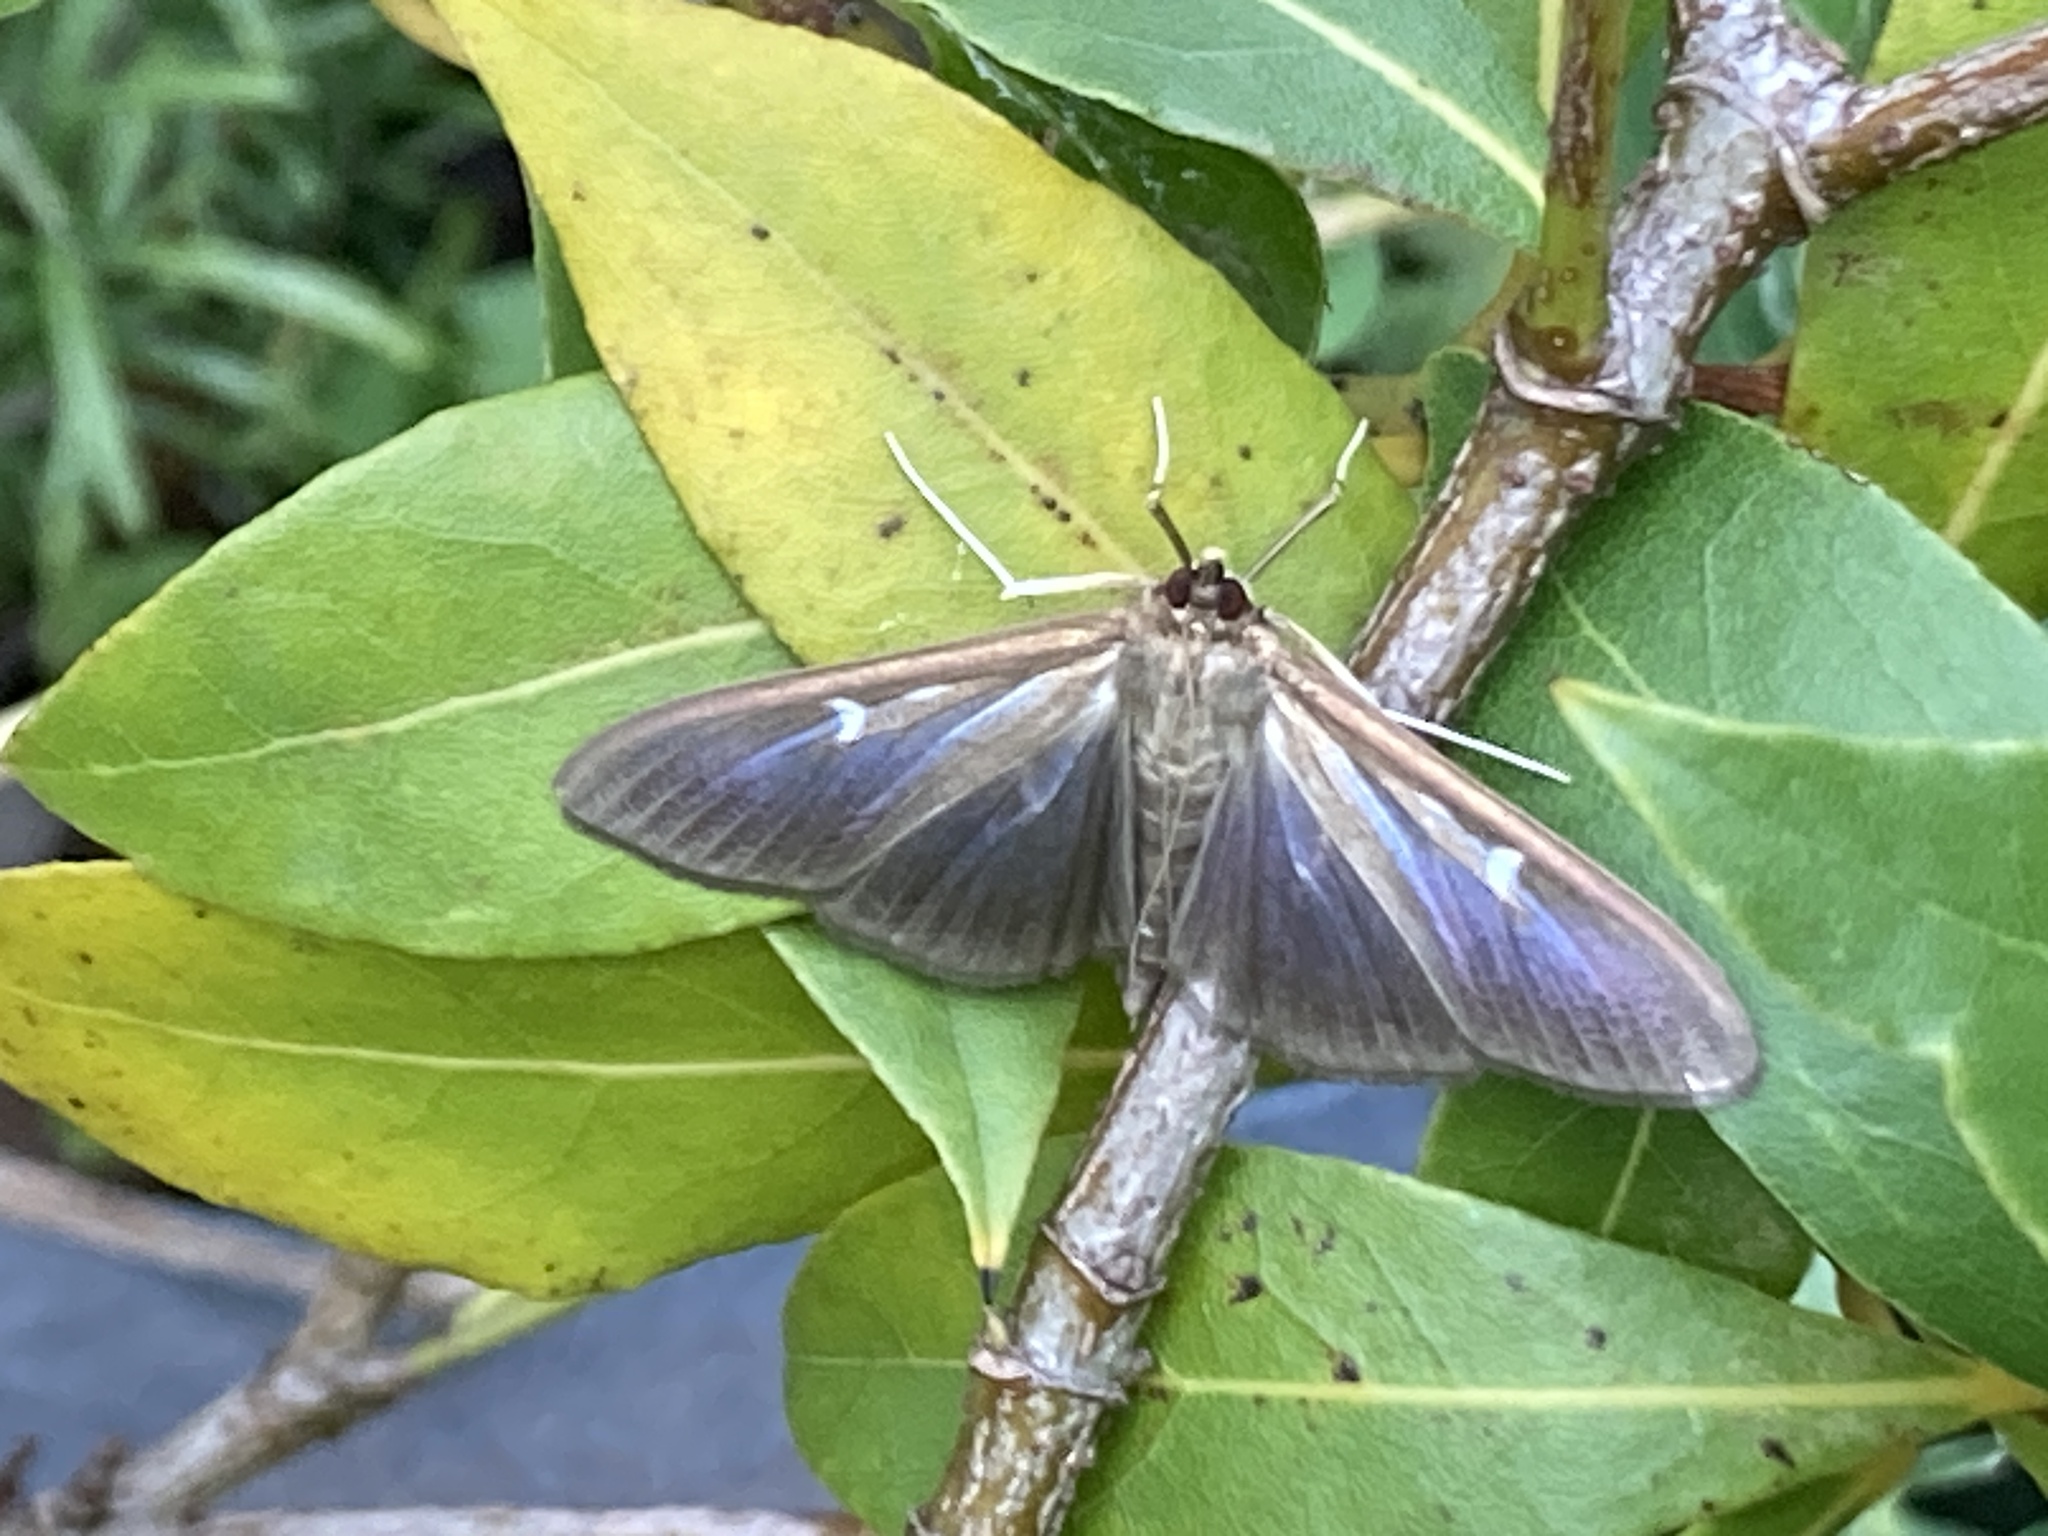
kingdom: Animalia
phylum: Arthropoda
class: Insecta
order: Lepidoptera
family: Crambidae
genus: Cydalima
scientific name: Cydalima perspectalis
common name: Box tree moth
